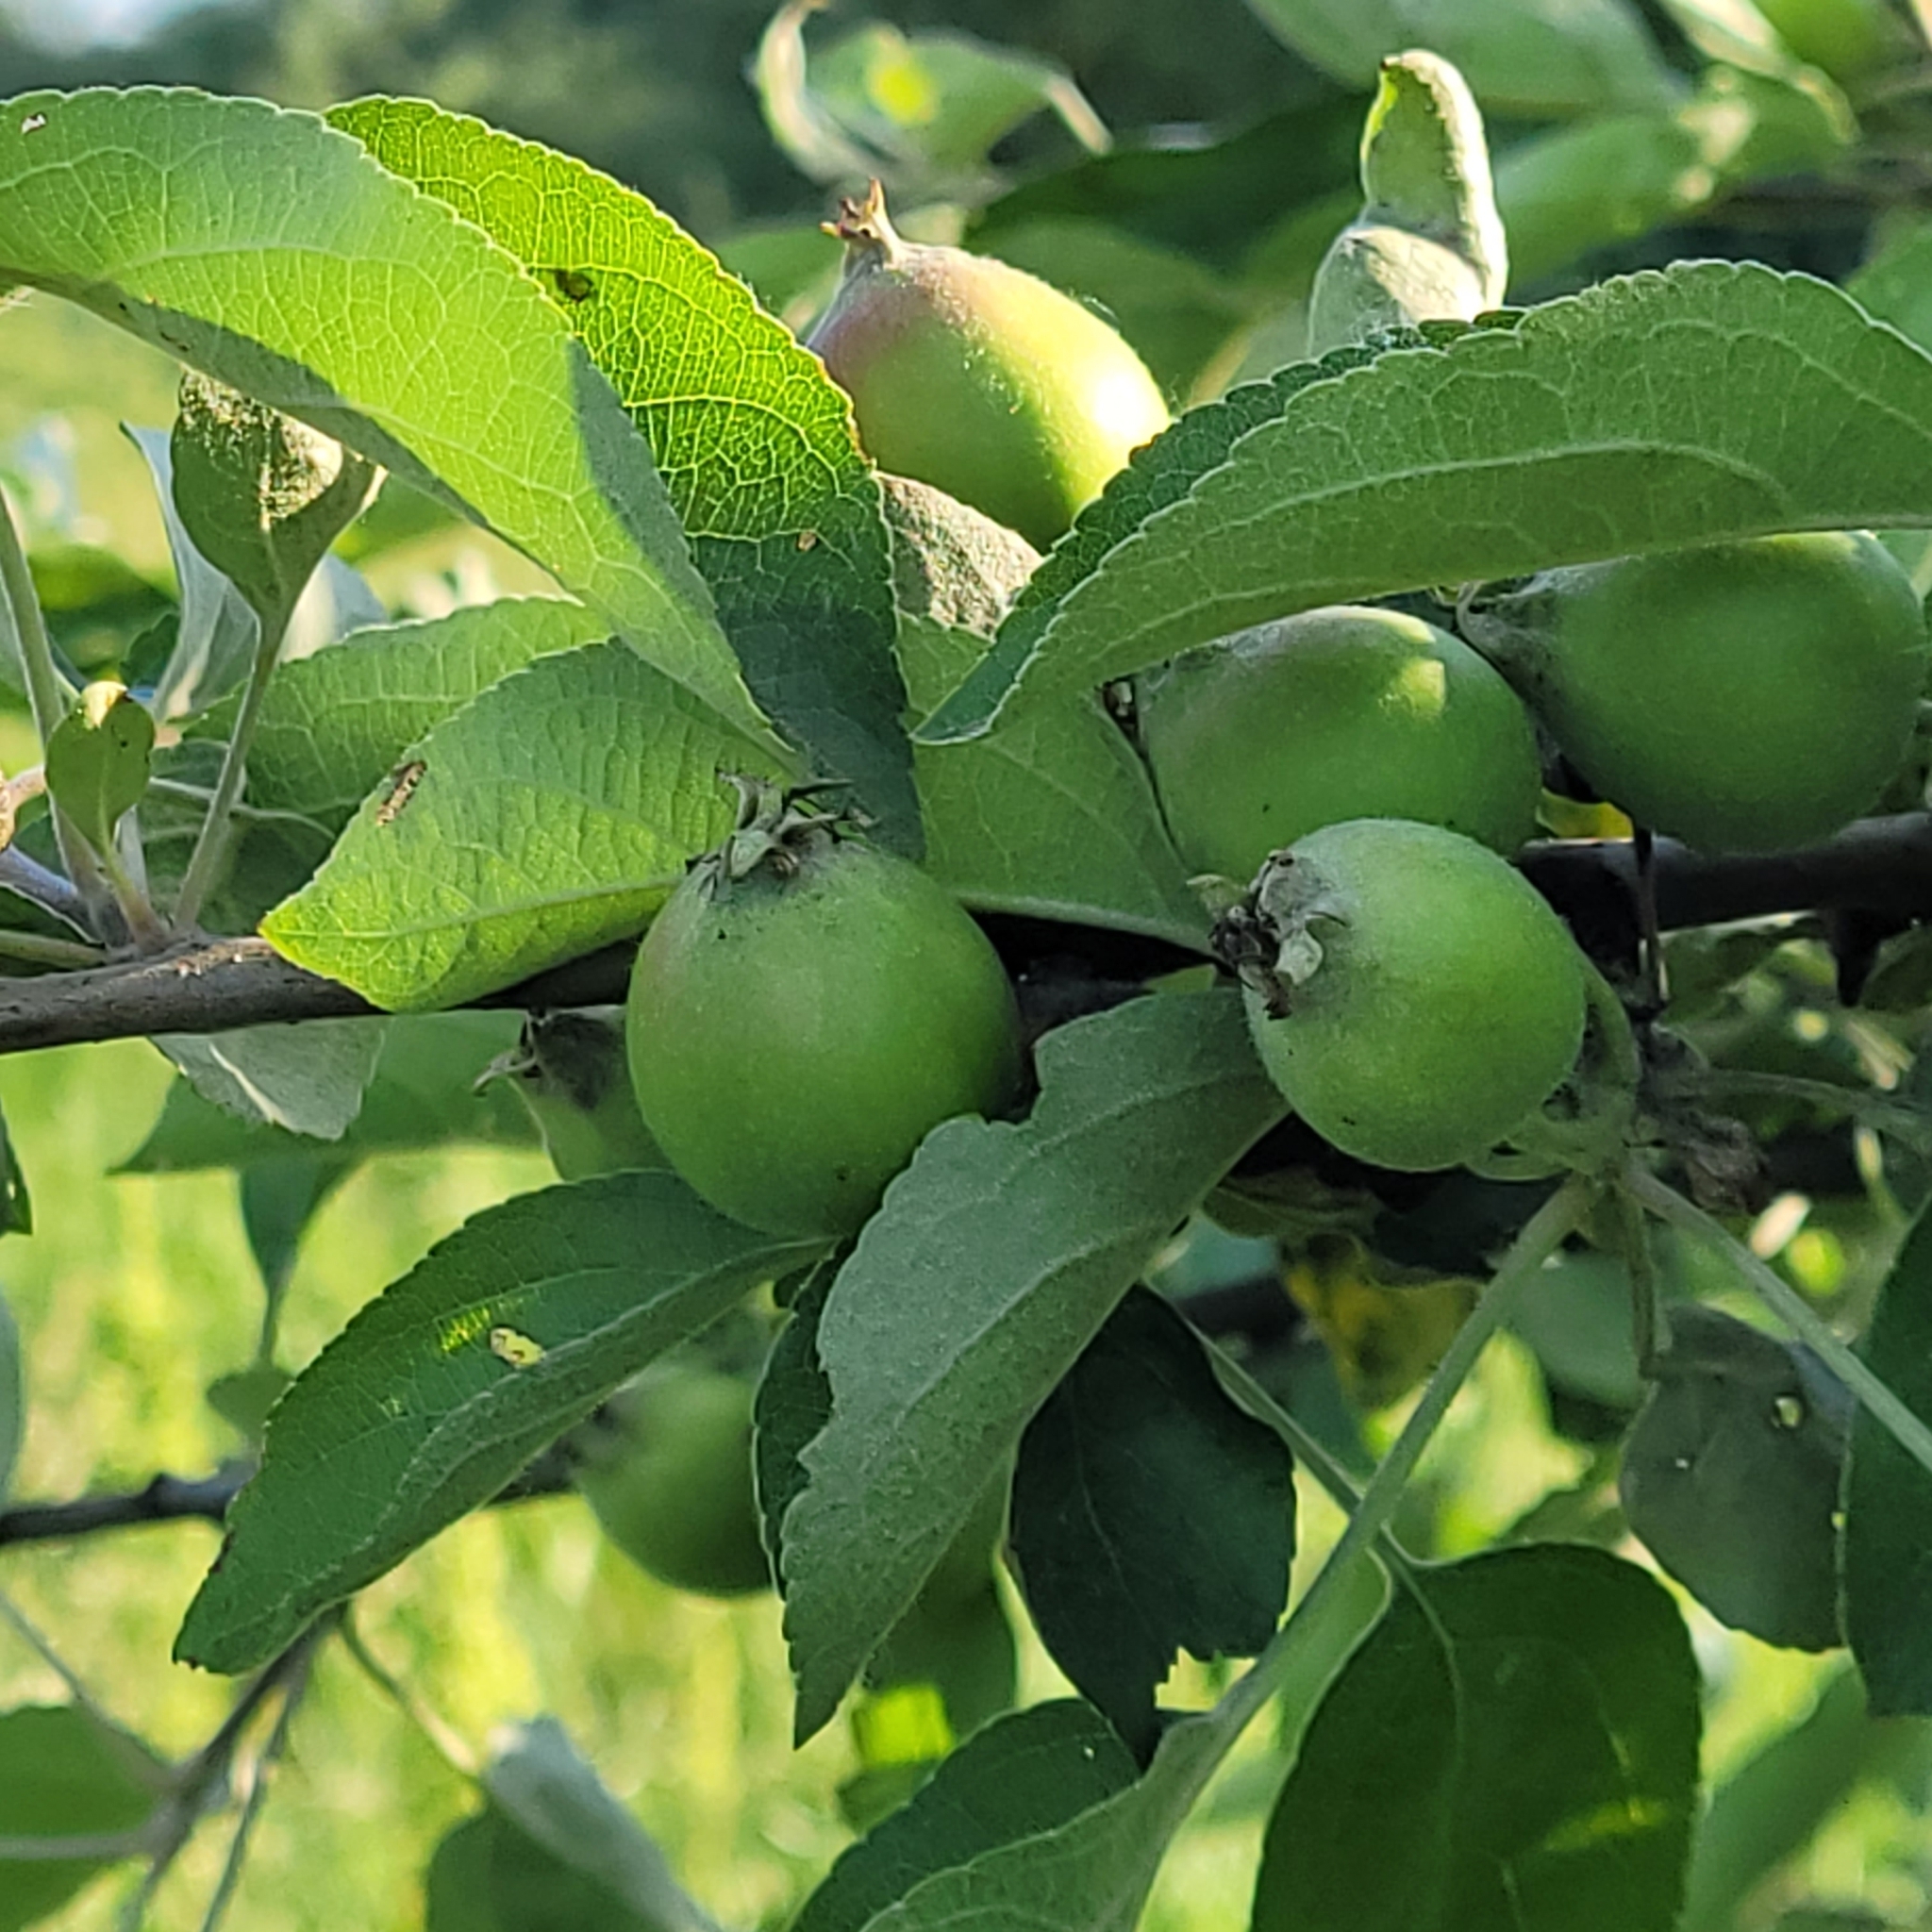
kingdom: Plantae
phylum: Tracheophyta
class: Magnoliopsida
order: Rosales
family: Rosaceae
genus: Malus
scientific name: Malus domestica
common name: Apple
